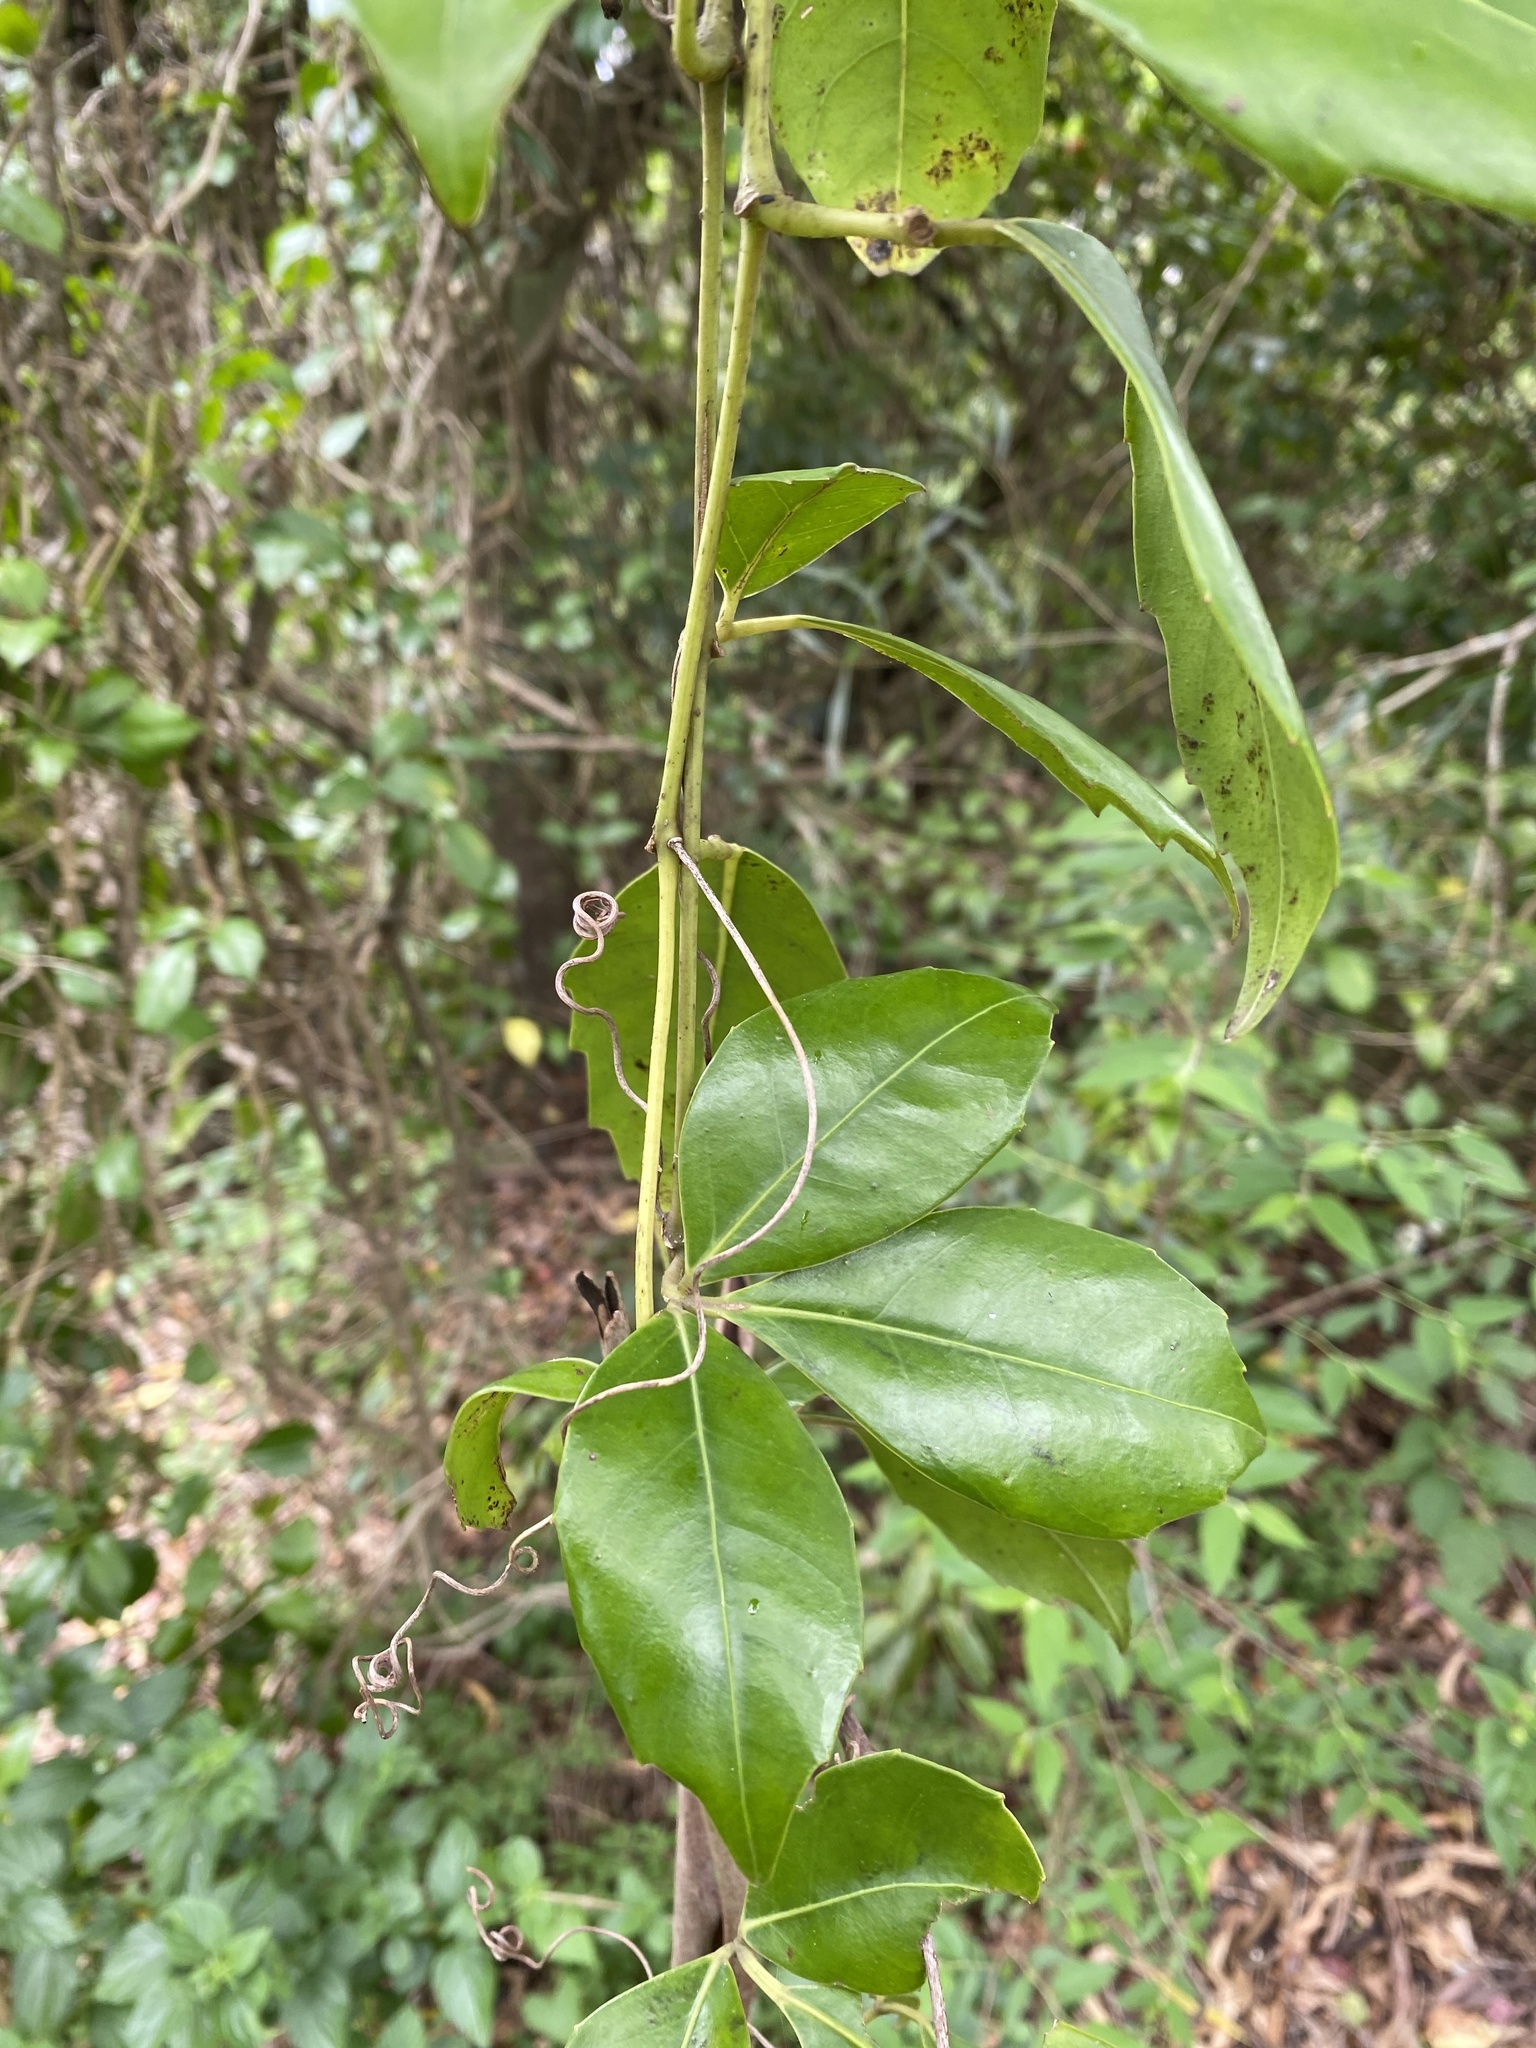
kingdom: Plantae
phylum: Tracheophyta
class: Magnoliopsida
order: Vitales
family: Vitaceae
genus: Tetrastigma
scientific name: Tetrastigma nitens
